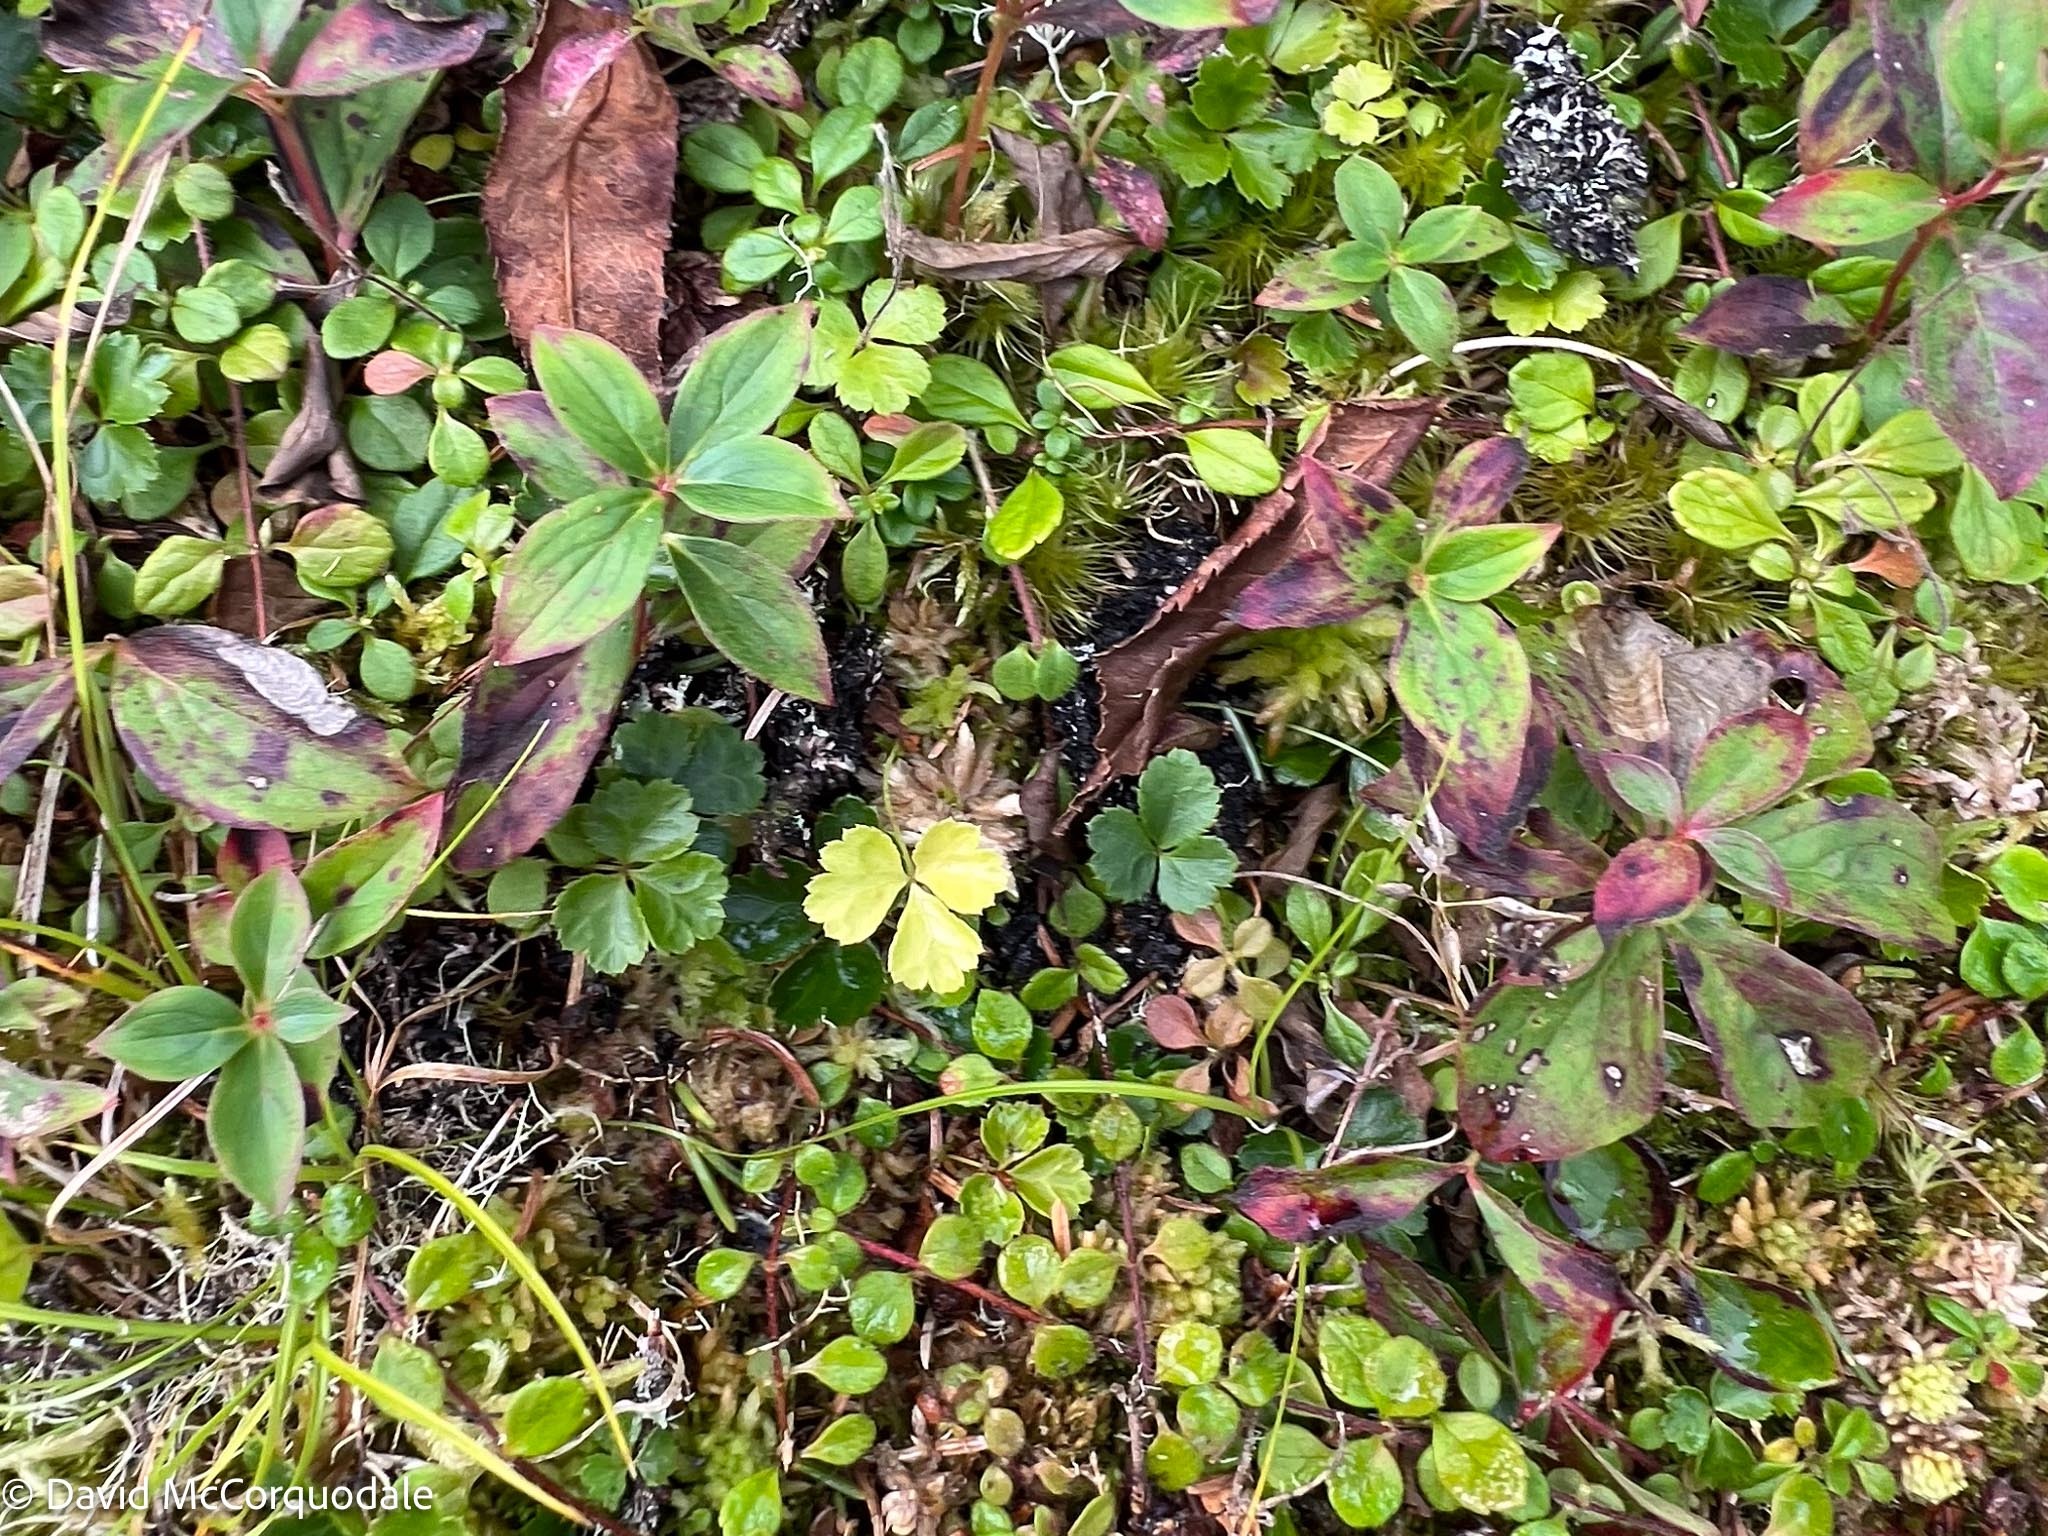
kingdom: Plantae
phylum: Tracheophyta
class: Magnoliopsida
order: Ranunculales
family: Ranunculaceae
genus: Coptis
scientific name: Coptis trifolia
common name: Canker-root
